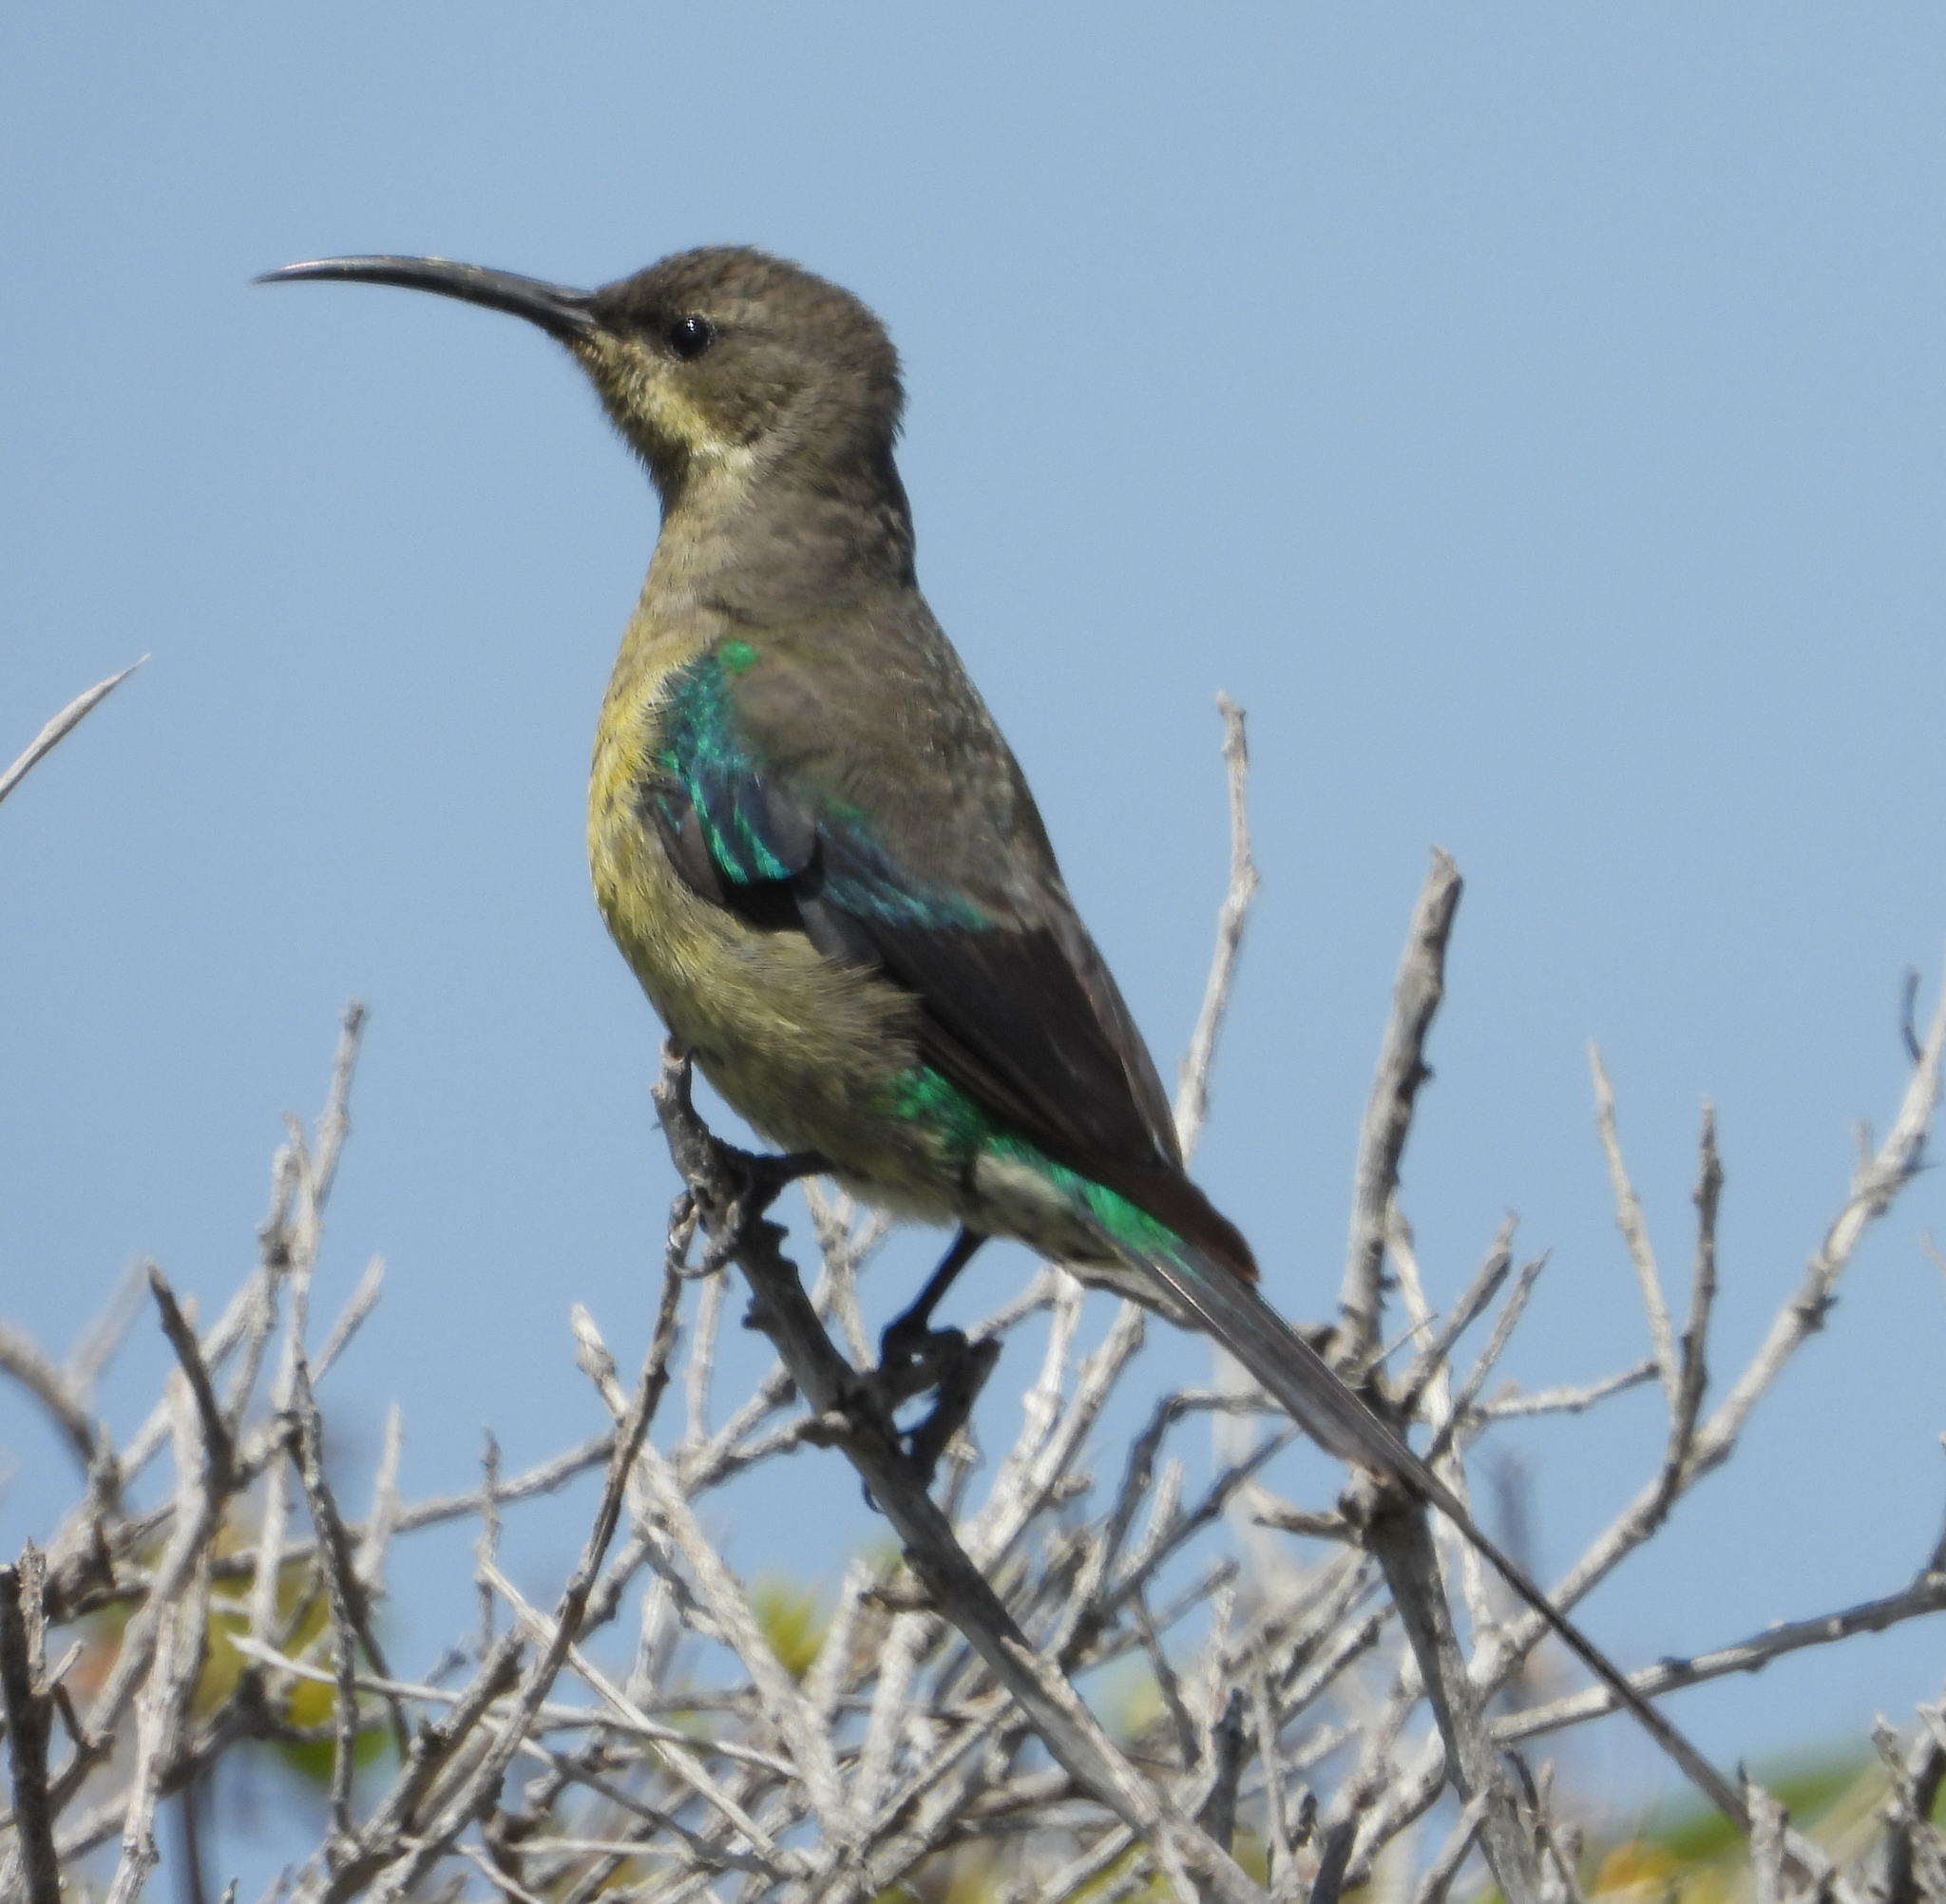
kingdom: Animalia
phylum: Chordata
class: Aves
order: Passeriformes
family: Nectariniidae
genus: Nectarinia
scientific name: Nectarinia famosa
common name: Malachite sunbird
